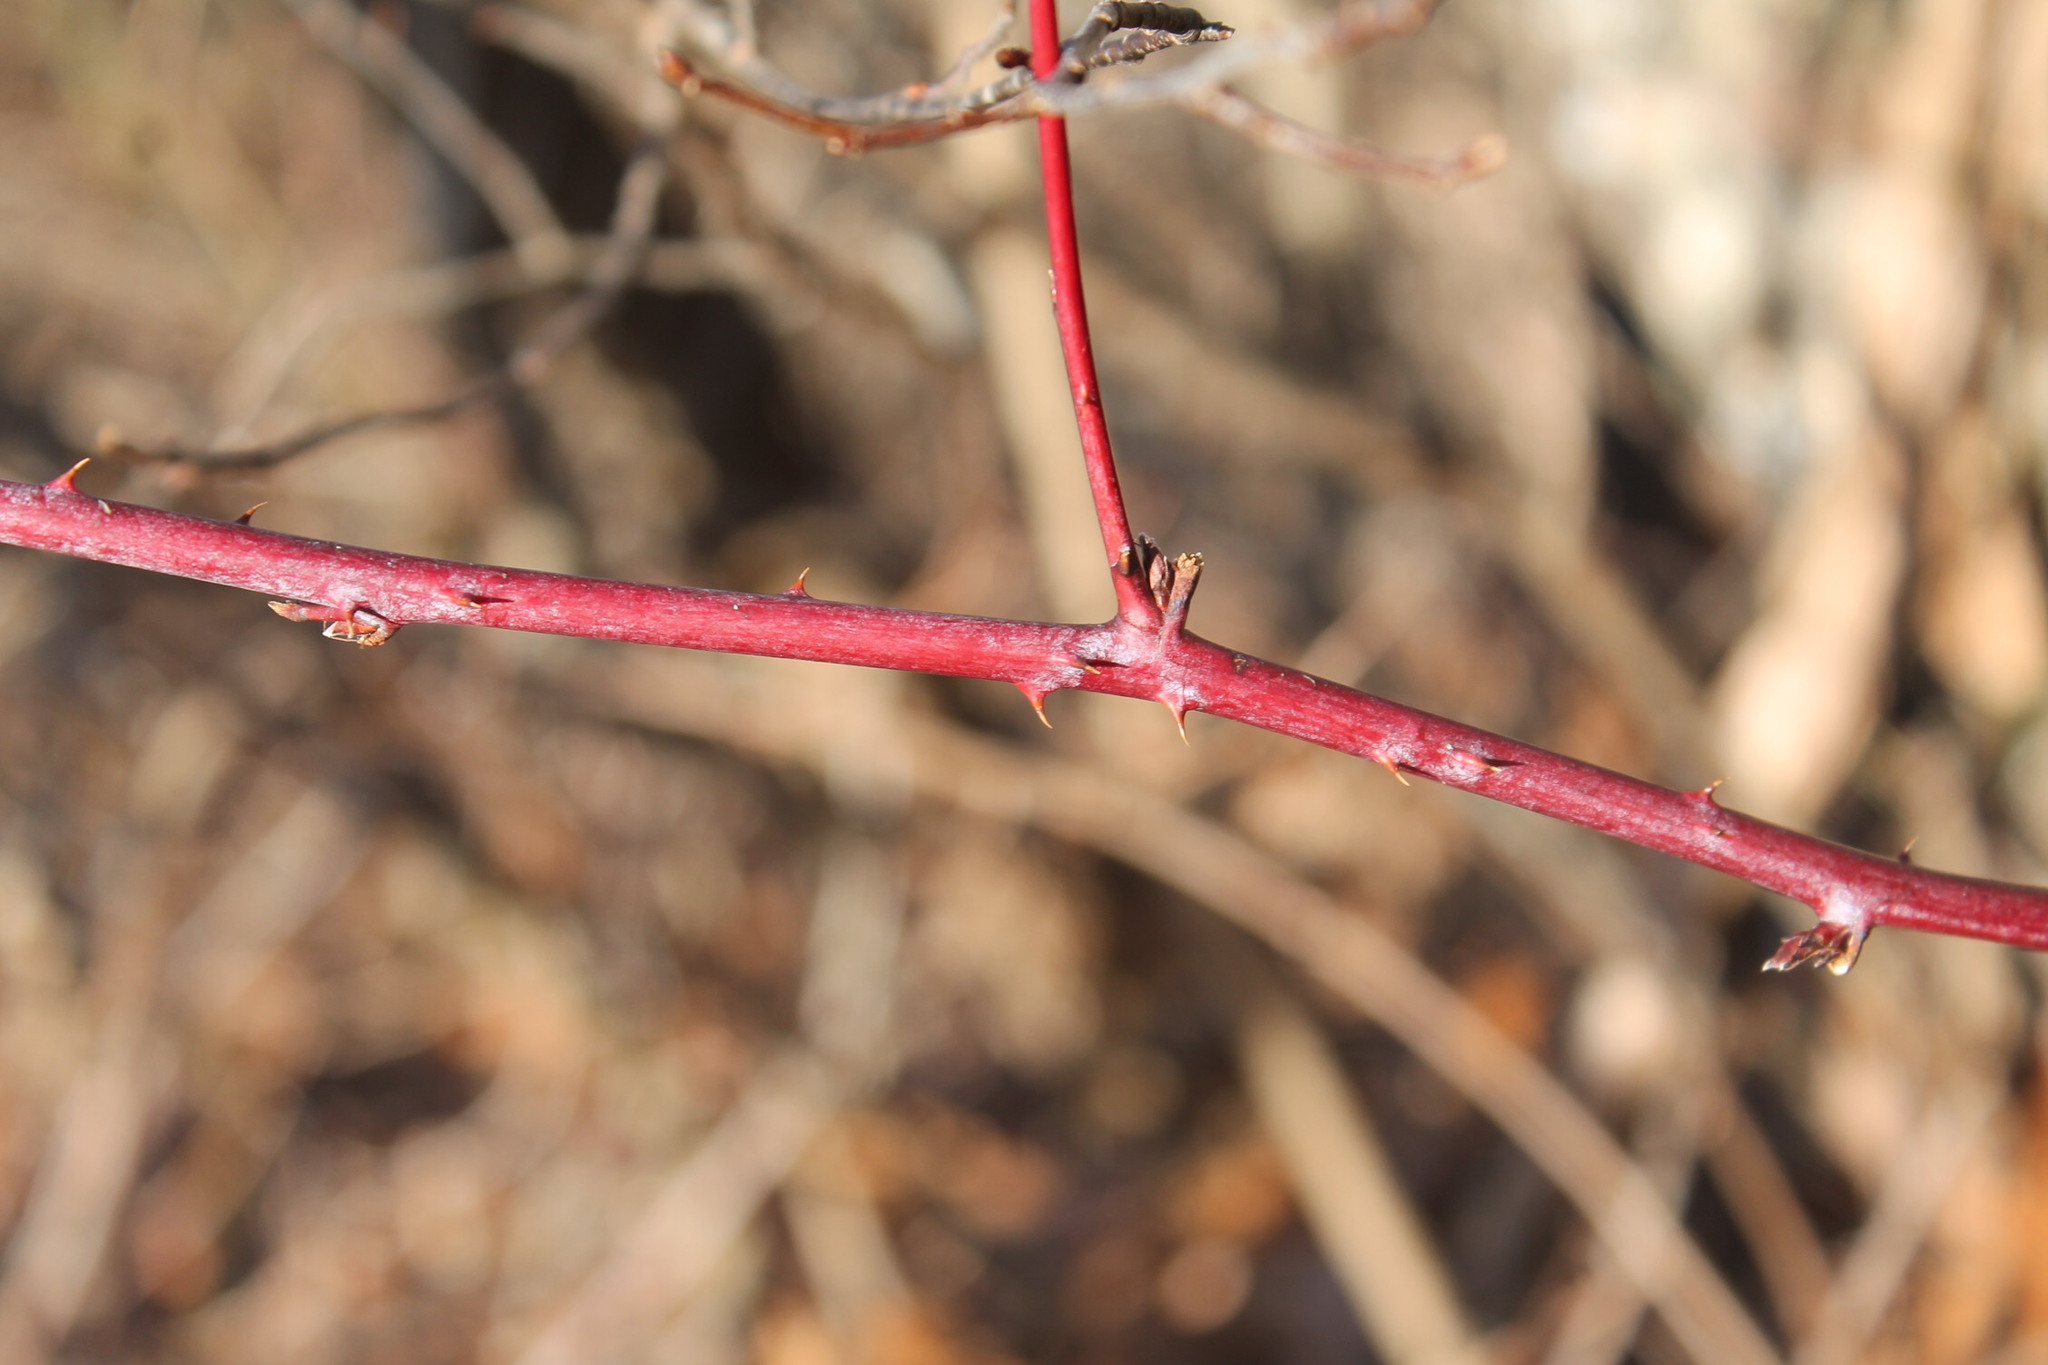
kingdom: Plantae
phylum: Tracheophyta
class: Magnoliopsida
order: Rosales
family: Rosaceae
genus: Rubus
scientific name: Rubus occidentalis
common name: Black raspberry
